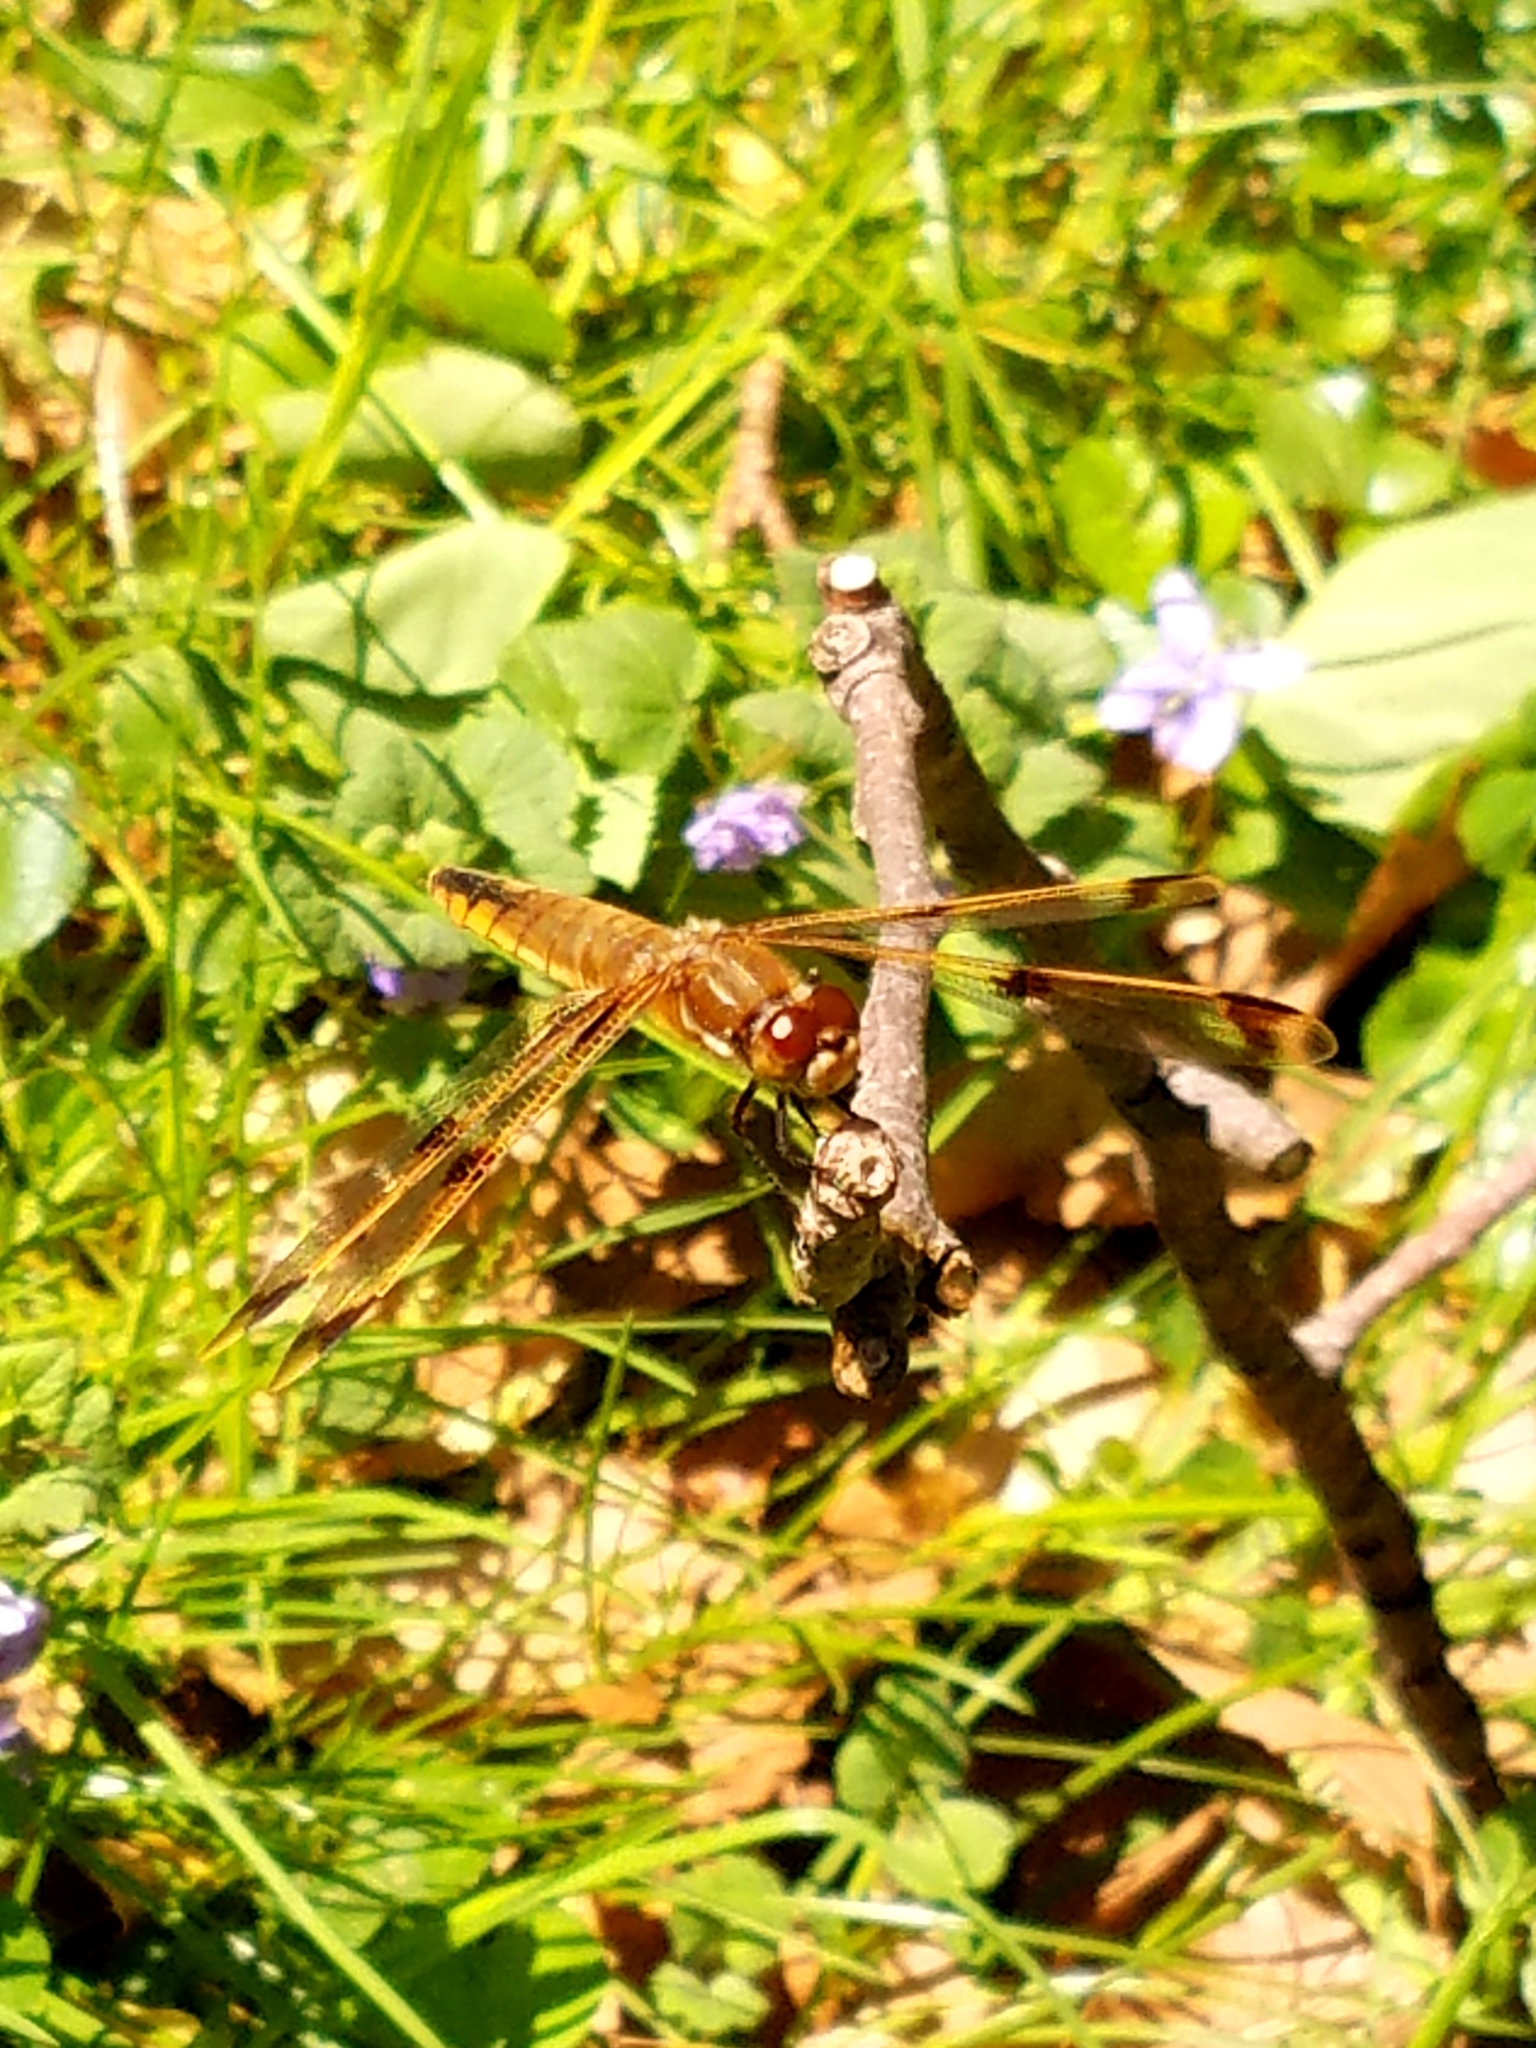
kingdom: Animalia
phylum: Arthropoda
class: Insecta
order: Odonata
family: Libellulidae
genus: Libellula
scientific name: Libellula semifasciata
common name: Painted skimmer
